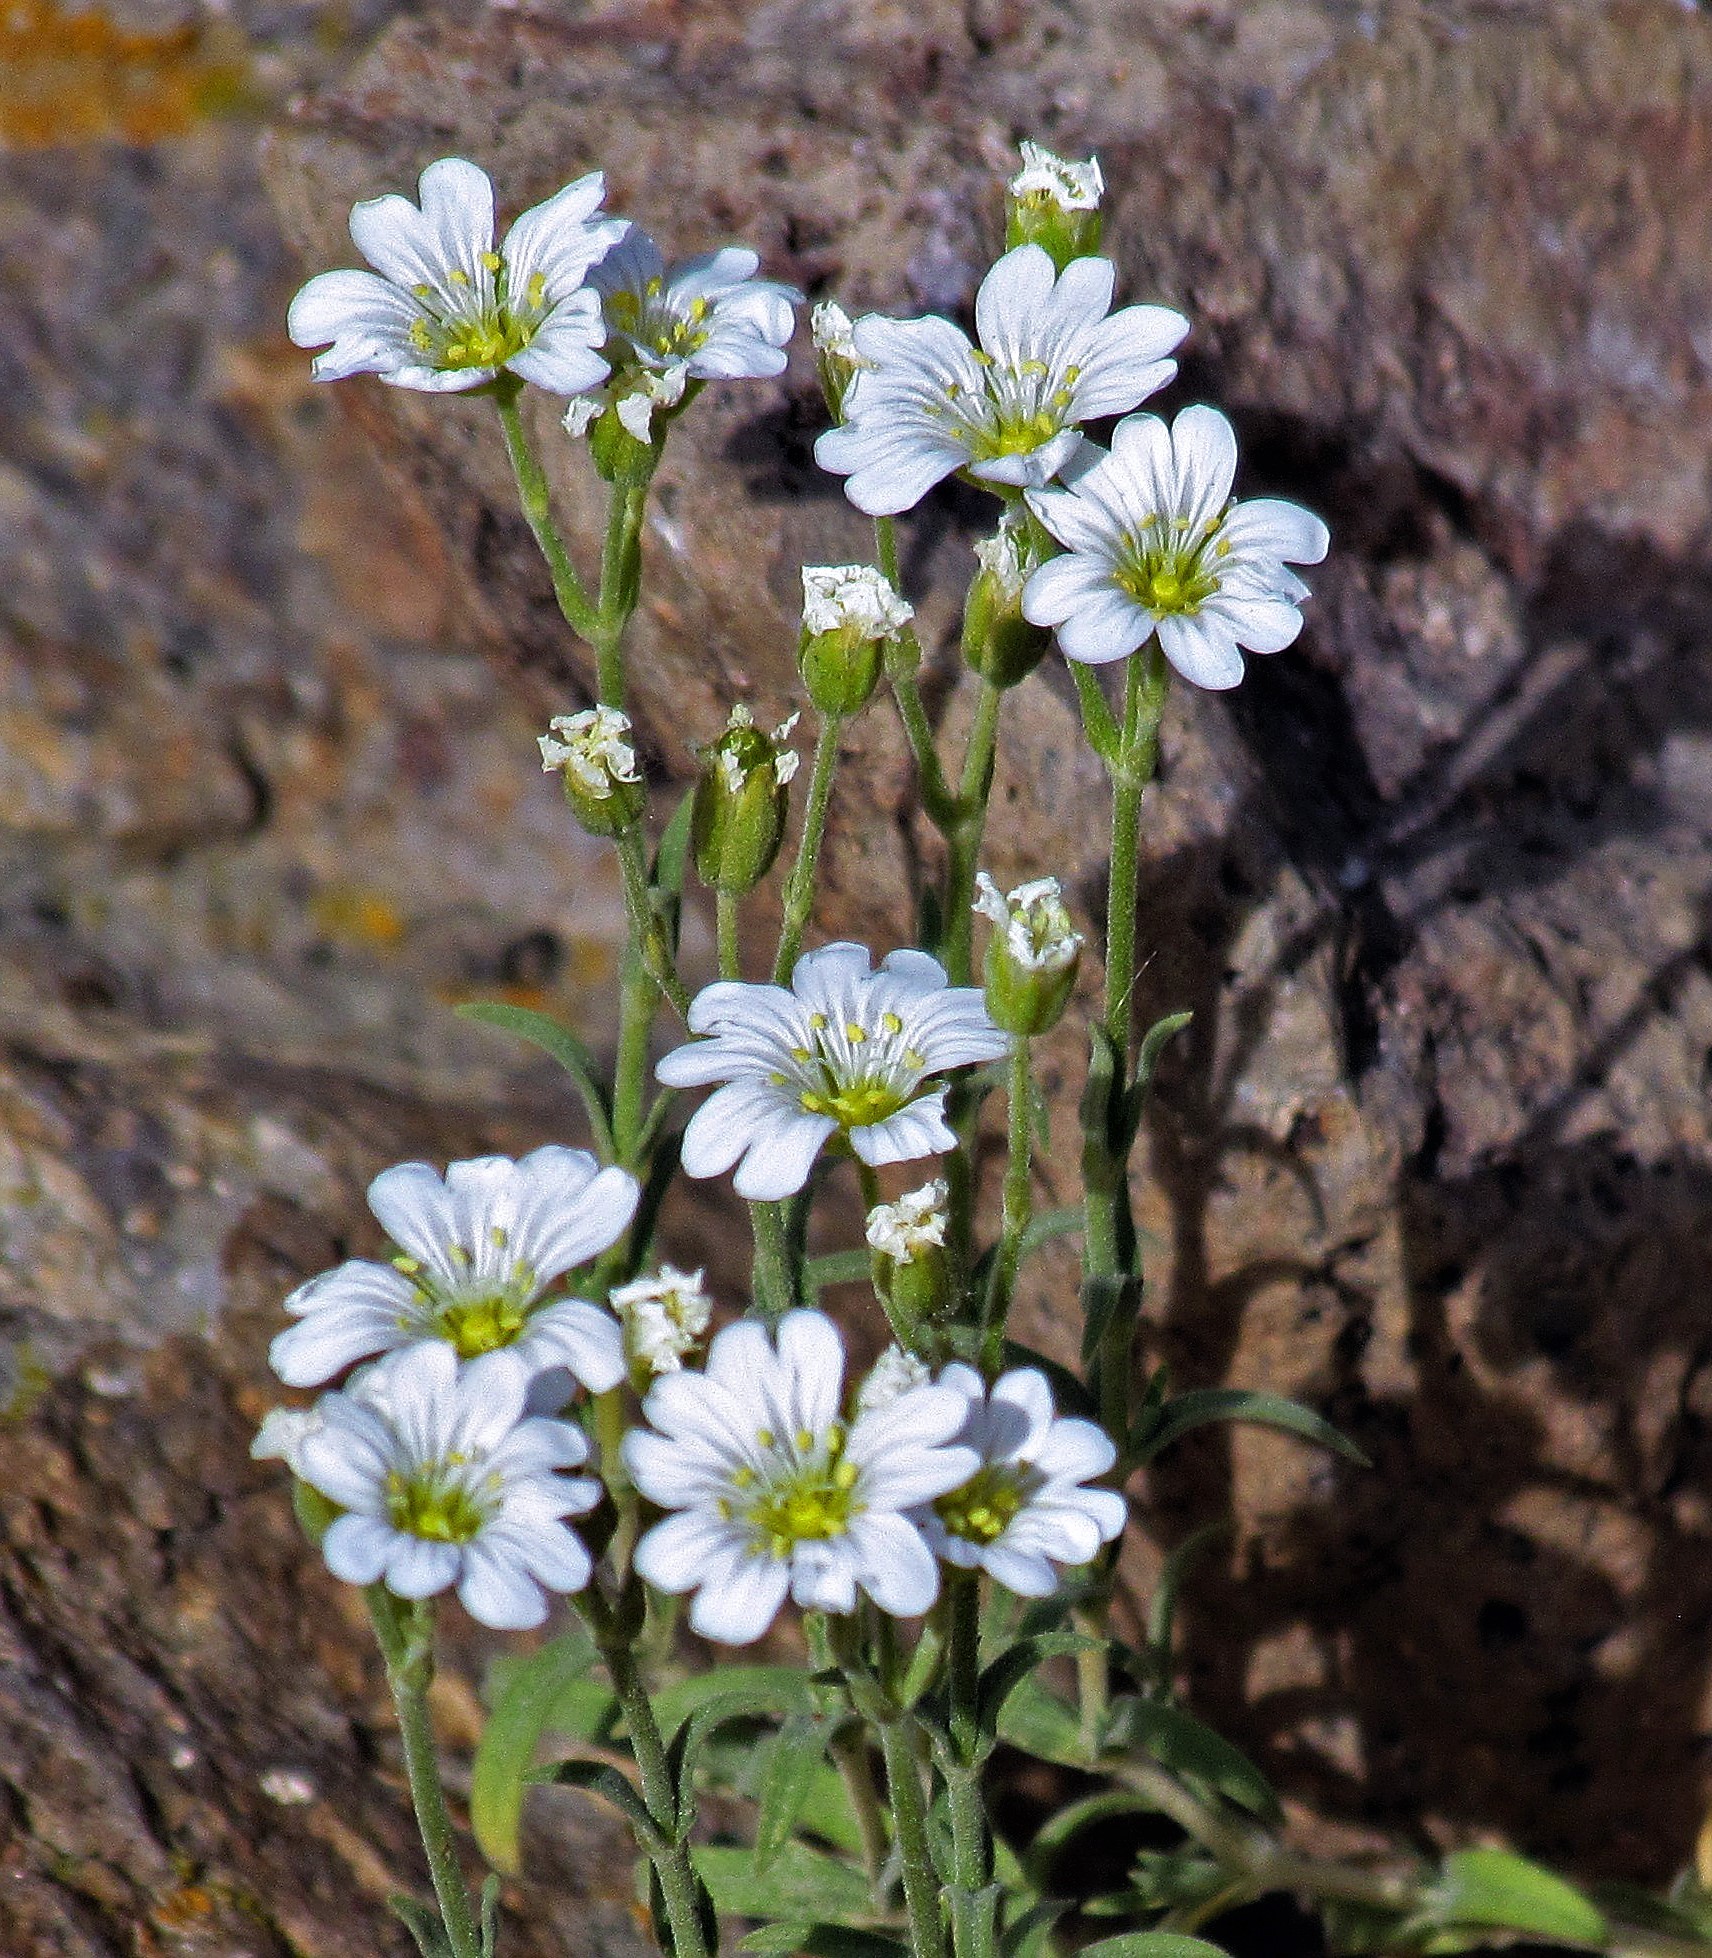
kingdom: Plantae
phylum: Tracheophyta
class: Magnoliopsida
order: Caryophyllales
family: Caryophyllaceae
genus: Cerastium
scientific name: Cerastium arvense
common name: Field mouse-ear
